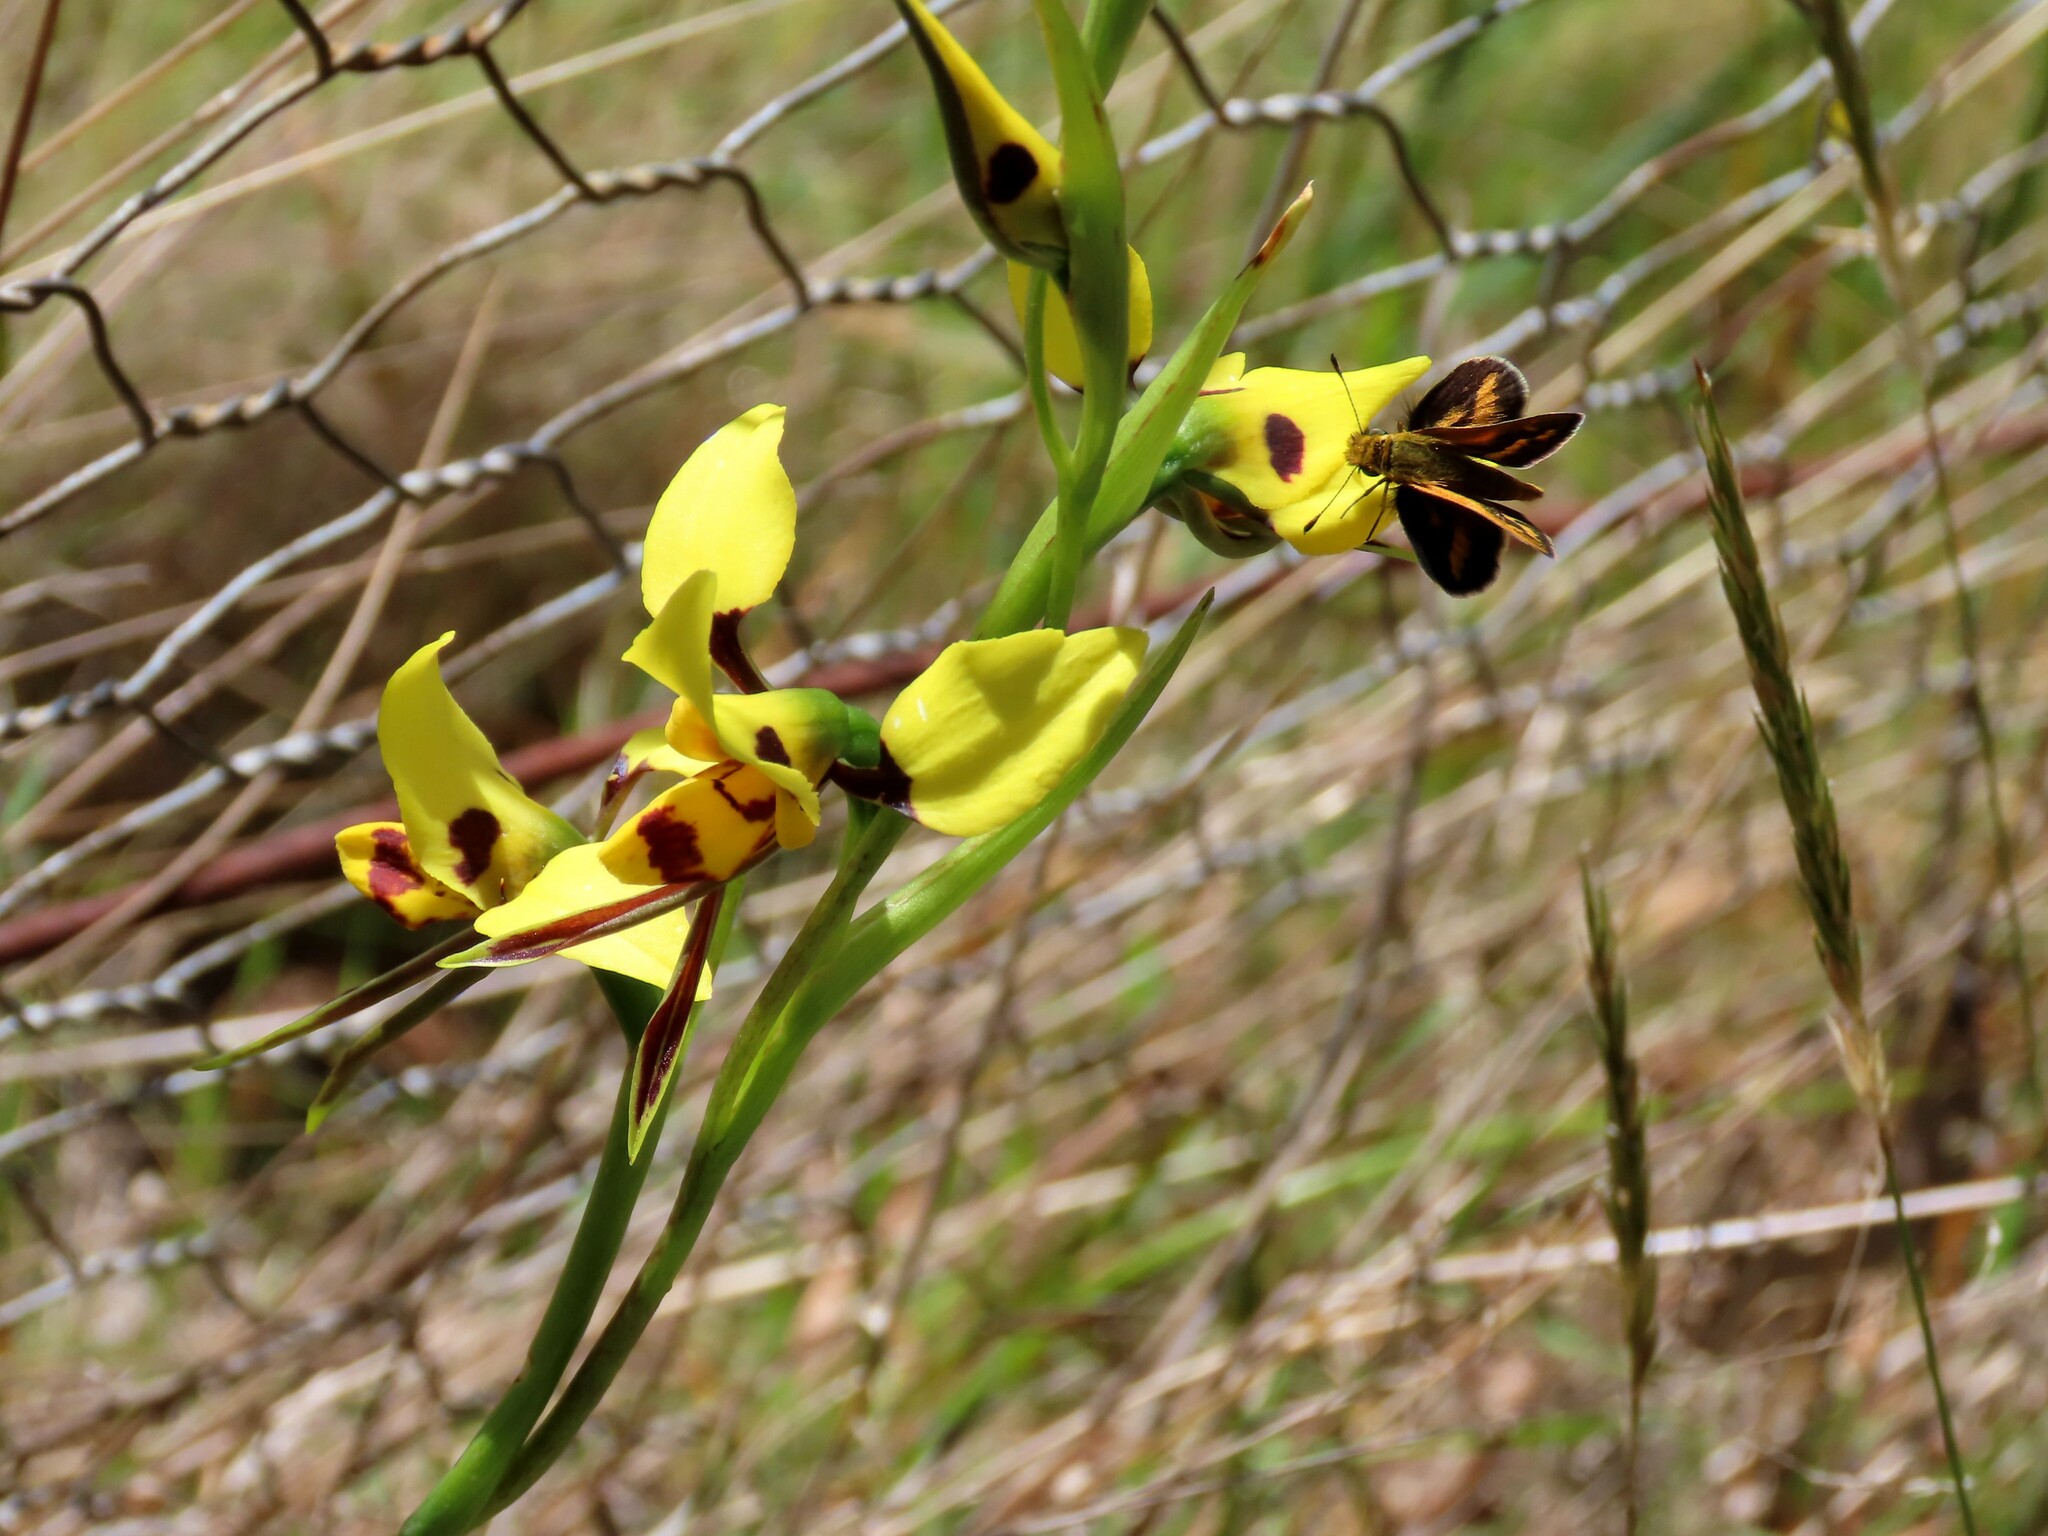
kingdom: Plantae
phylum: Tracheophyta
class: Liliopsida
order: Asparagales
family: Orchidaceae
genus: Diuris
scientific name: Diuris sulphurea
